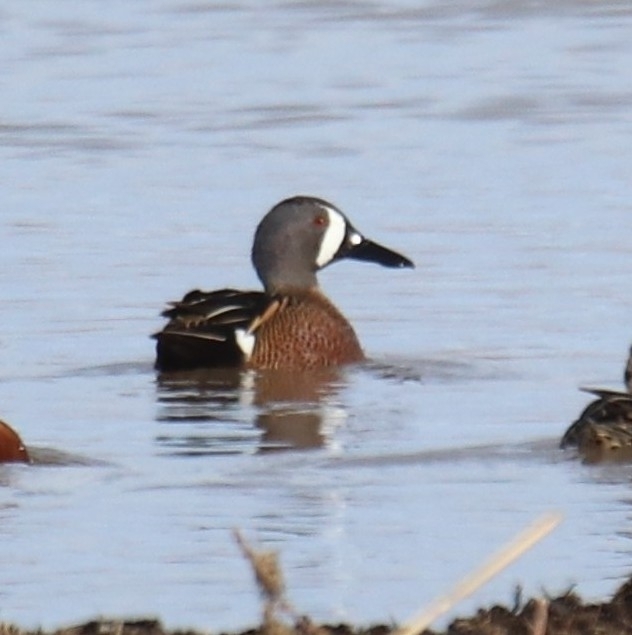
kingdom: Animalia
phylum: Chordata
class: Aves
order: Anseriformes
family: Anatidae
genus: Spatula
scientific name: Spatula discors
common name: Blue-winged teal
